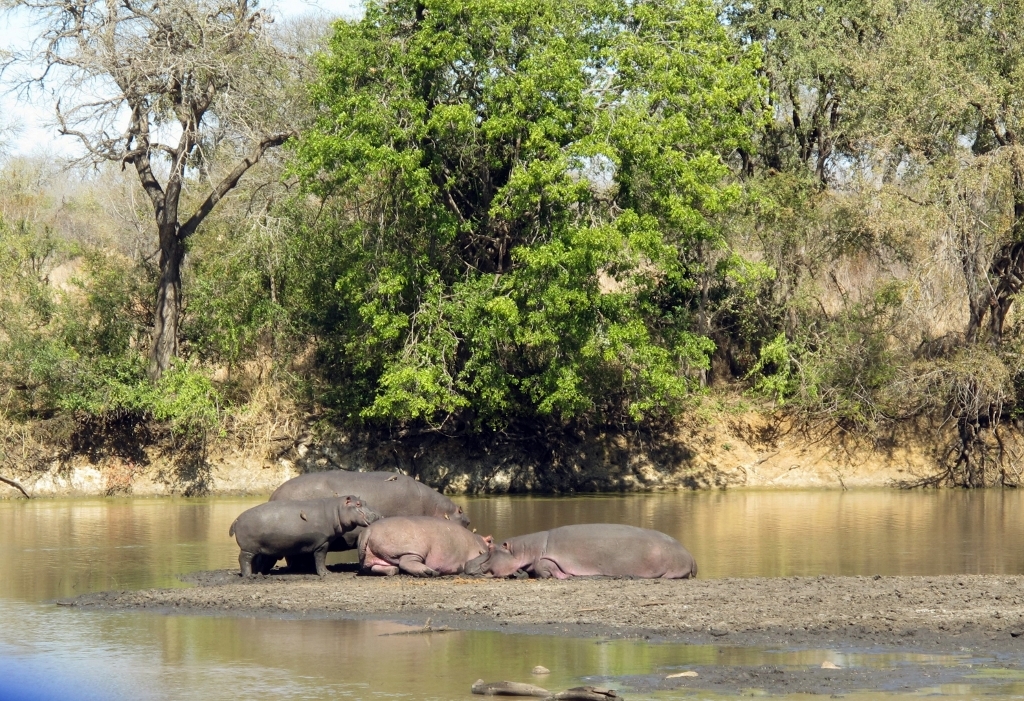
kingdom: Animalia
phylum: Chordata
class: Mammalia
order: Artiodactyla
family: Hippopotamidae
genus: Hippopotamus
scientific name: Hippopotamus amphibius
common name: Common hippopotamus
